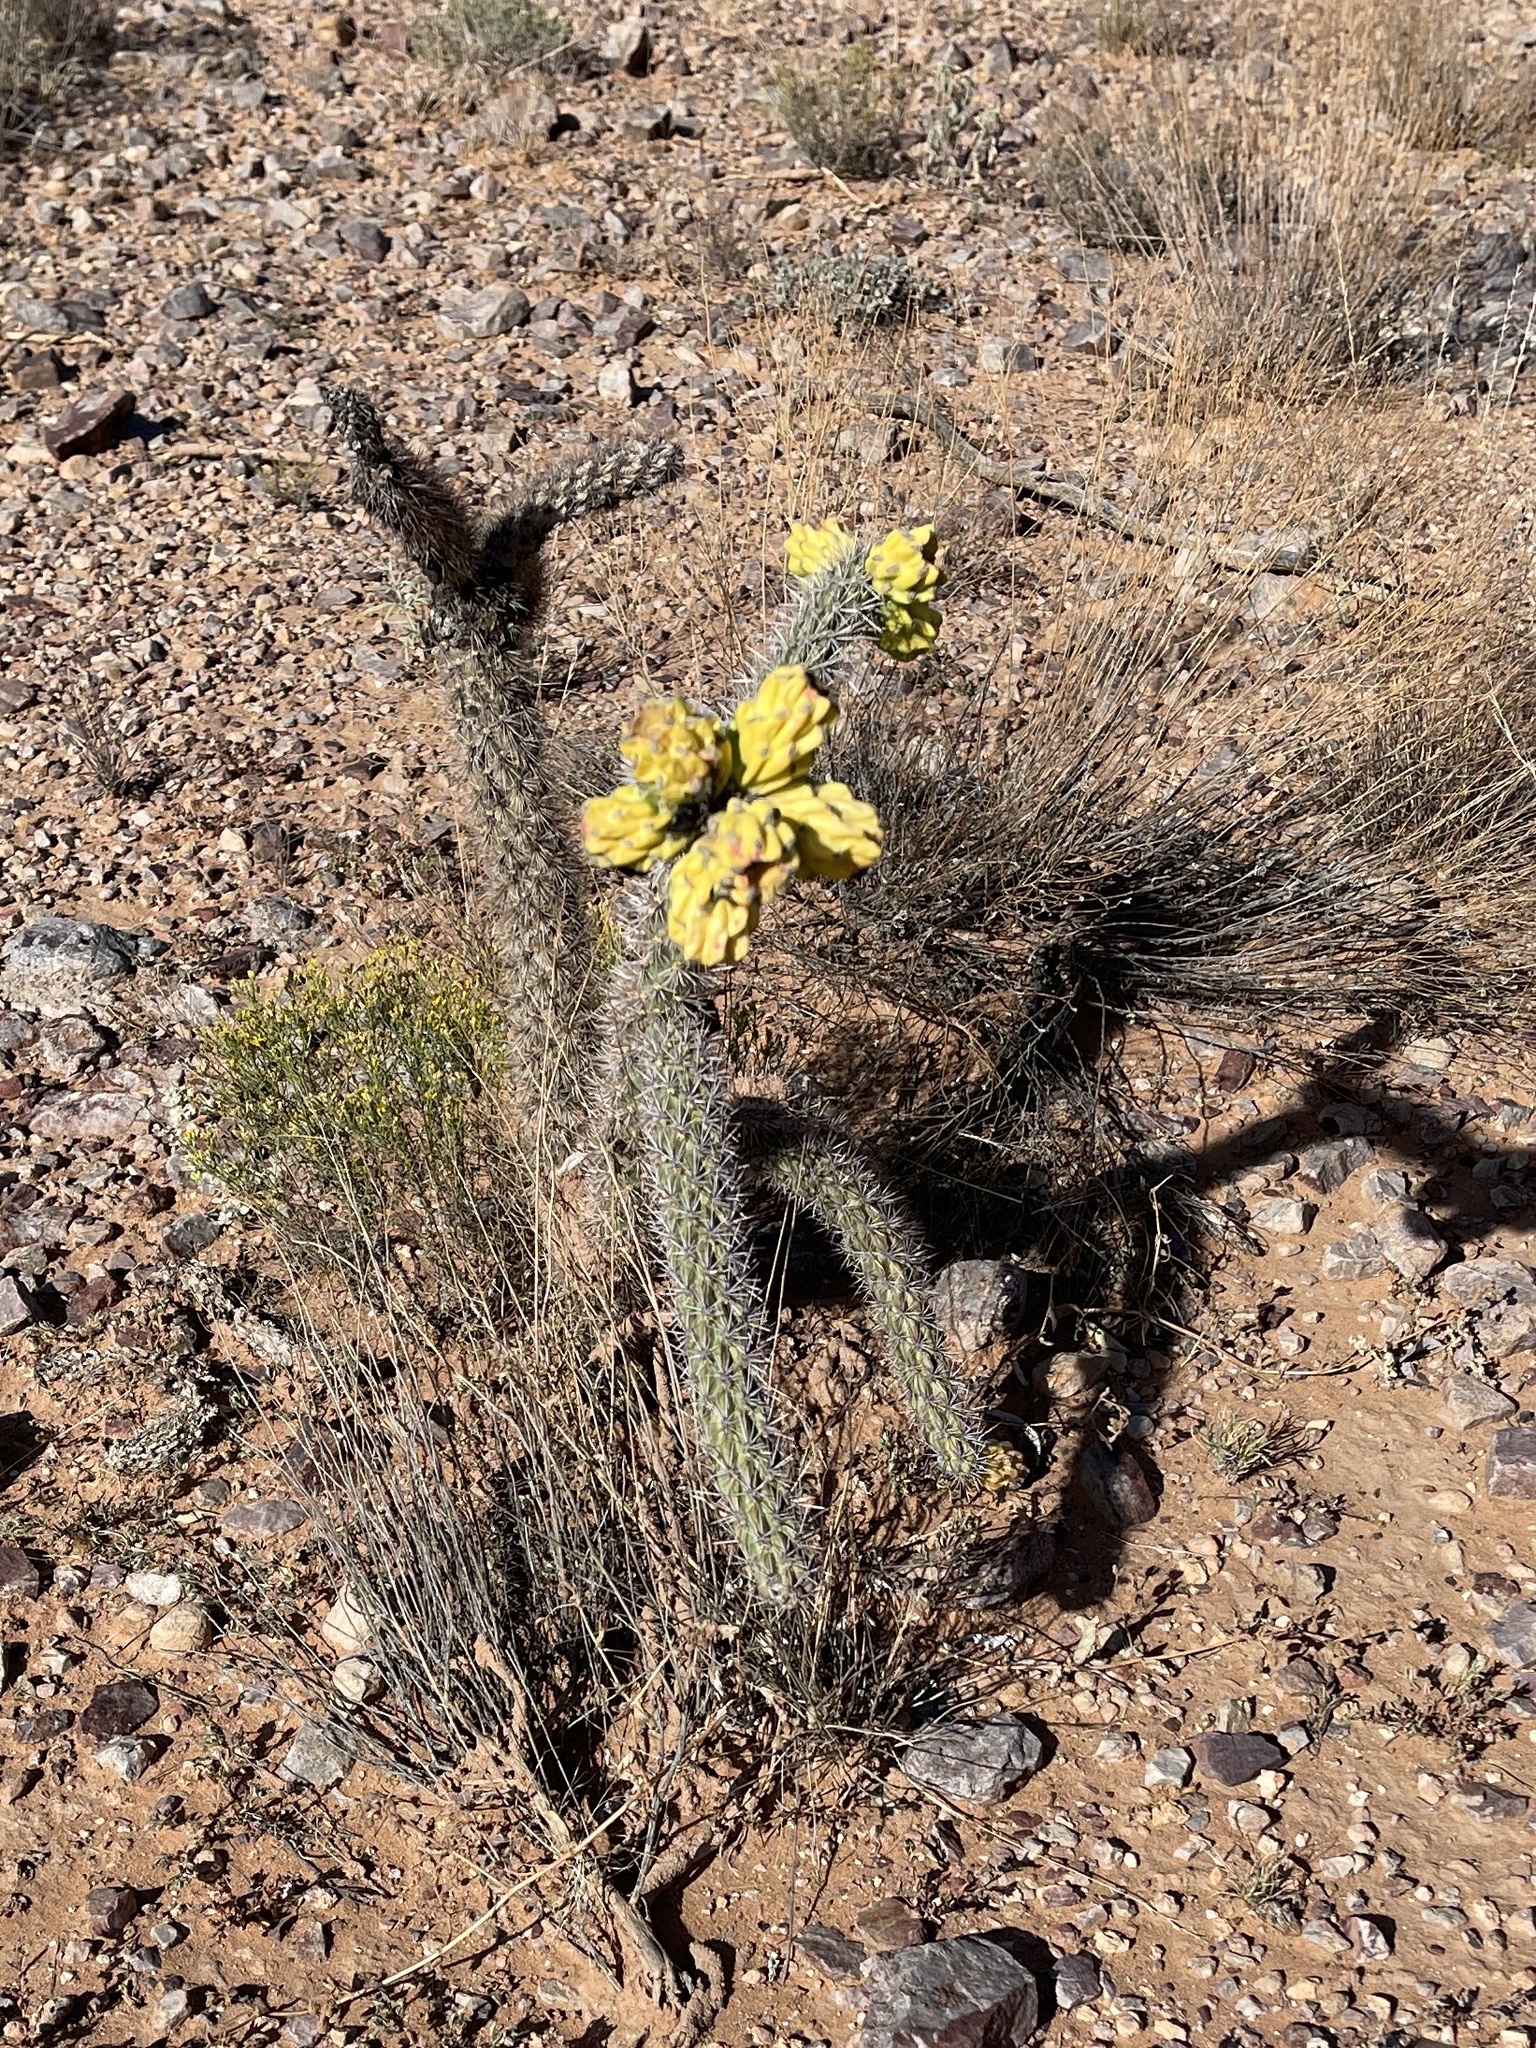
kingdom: Plantae
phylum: Tracheophyta
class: Magnoliopsida
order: Caryophyllales
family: Cactaceae
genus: Cylindropuntia
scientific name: Cylindropuntia imbricata
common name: Candelabrum cactus
